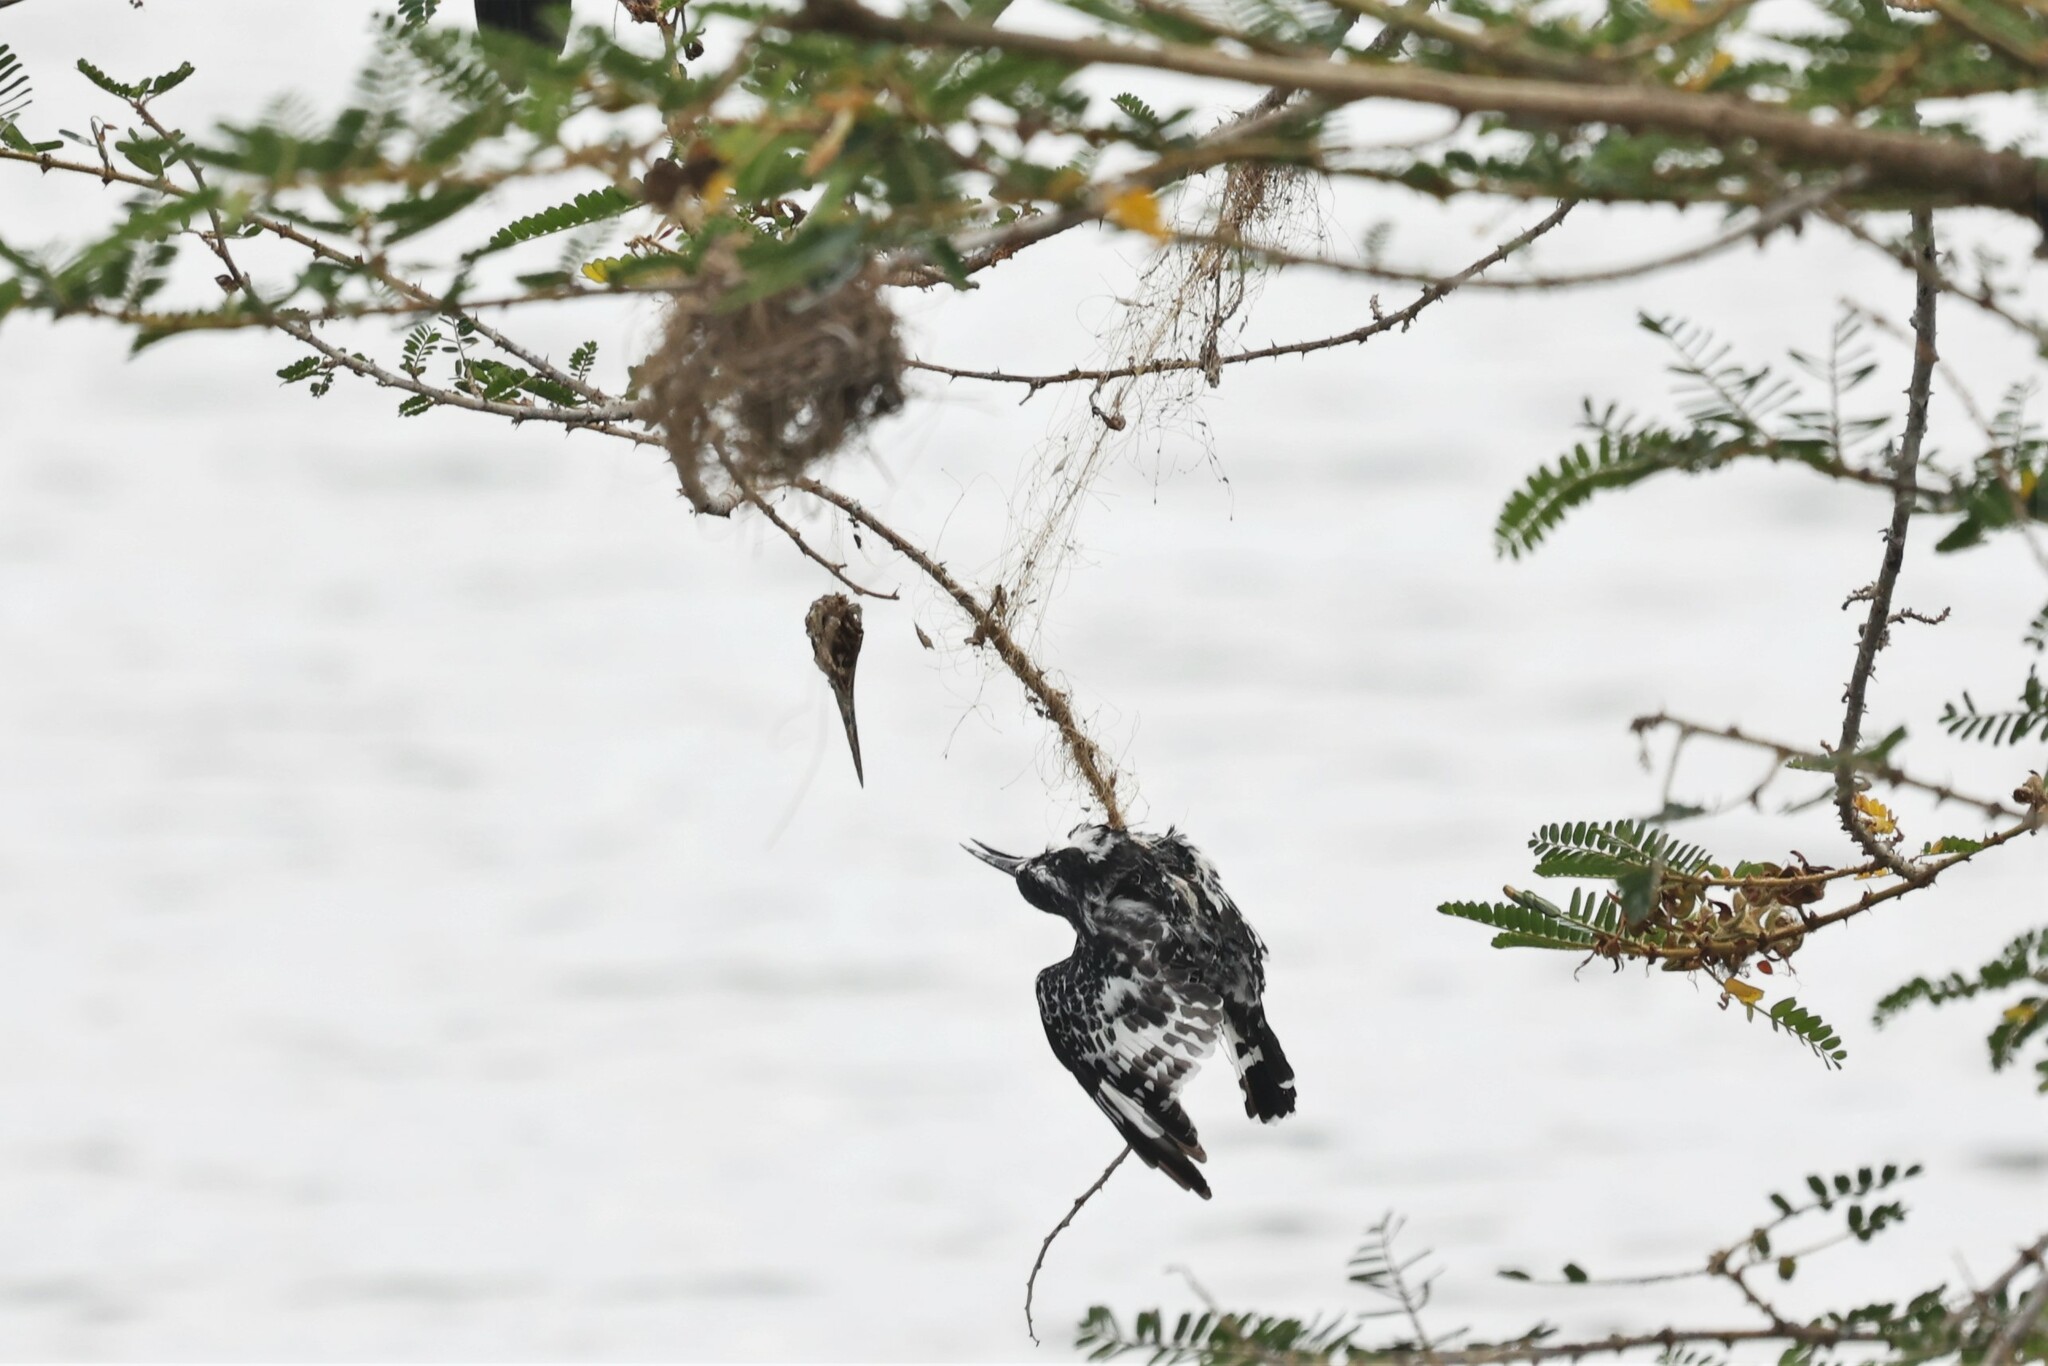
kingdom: Animalia
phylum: Chordata
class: Aves
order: Coraciiformes
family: Alcedinidae
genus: Ceryle
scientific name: Ceryle rudis
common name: Pied kingfisher
